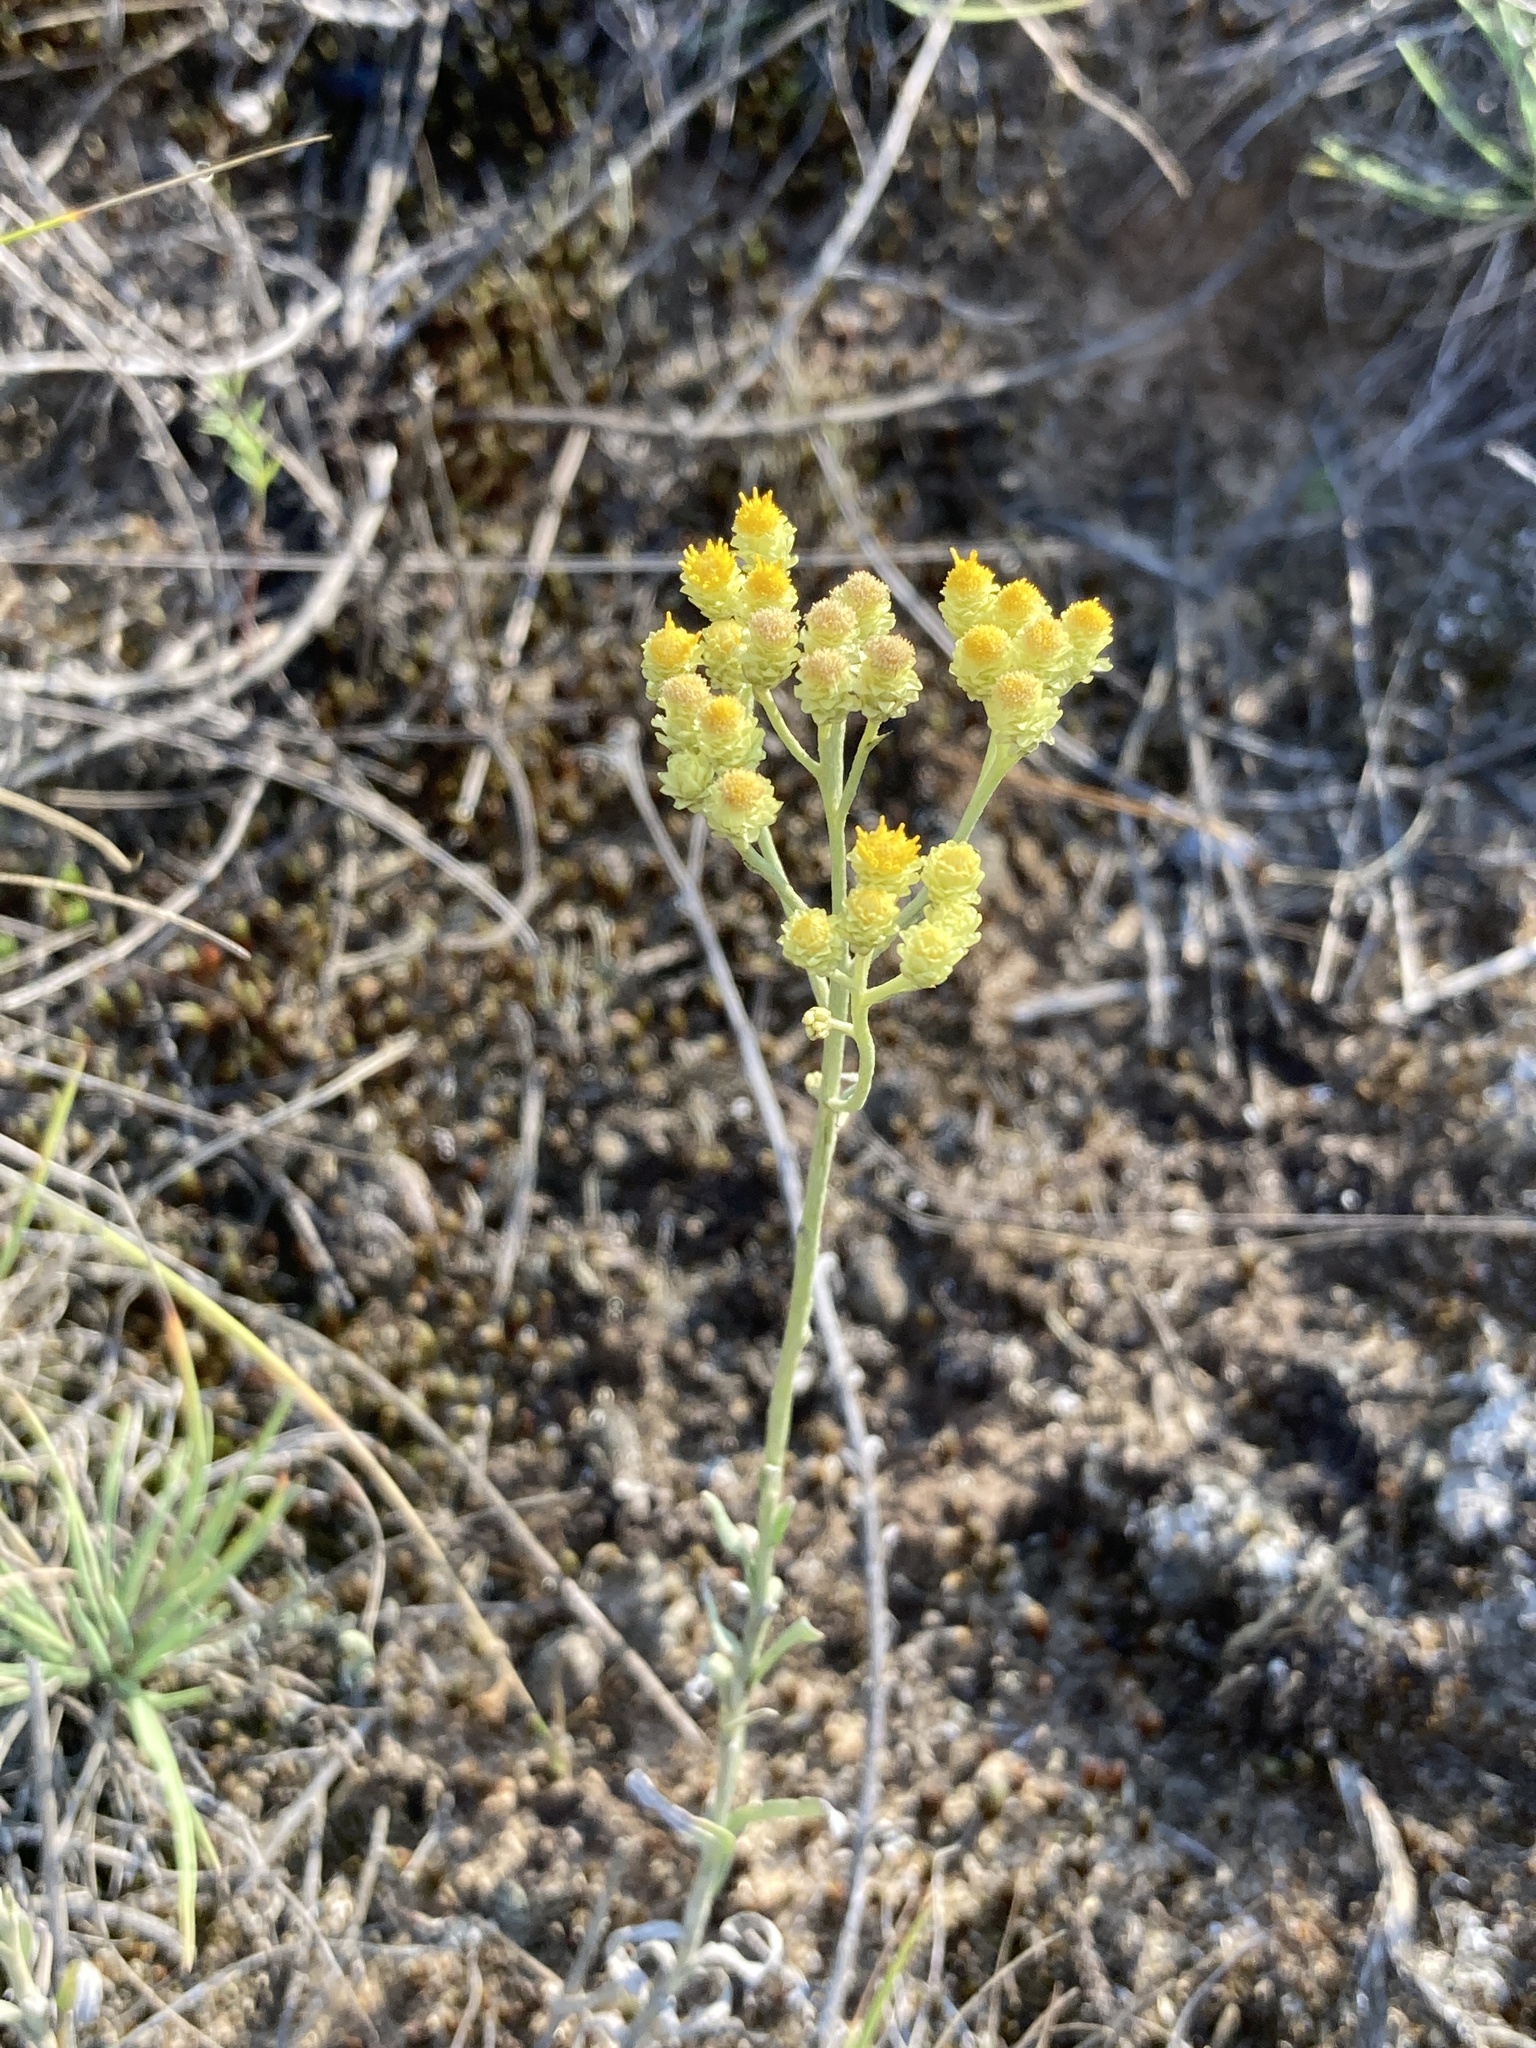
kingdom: Plantae
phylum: Tracheophyta
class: Magnoliopsida
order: Asterales
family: Asteraceae
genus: Helichrysum
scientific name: Helichrysum arenarium
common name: Strawflower
